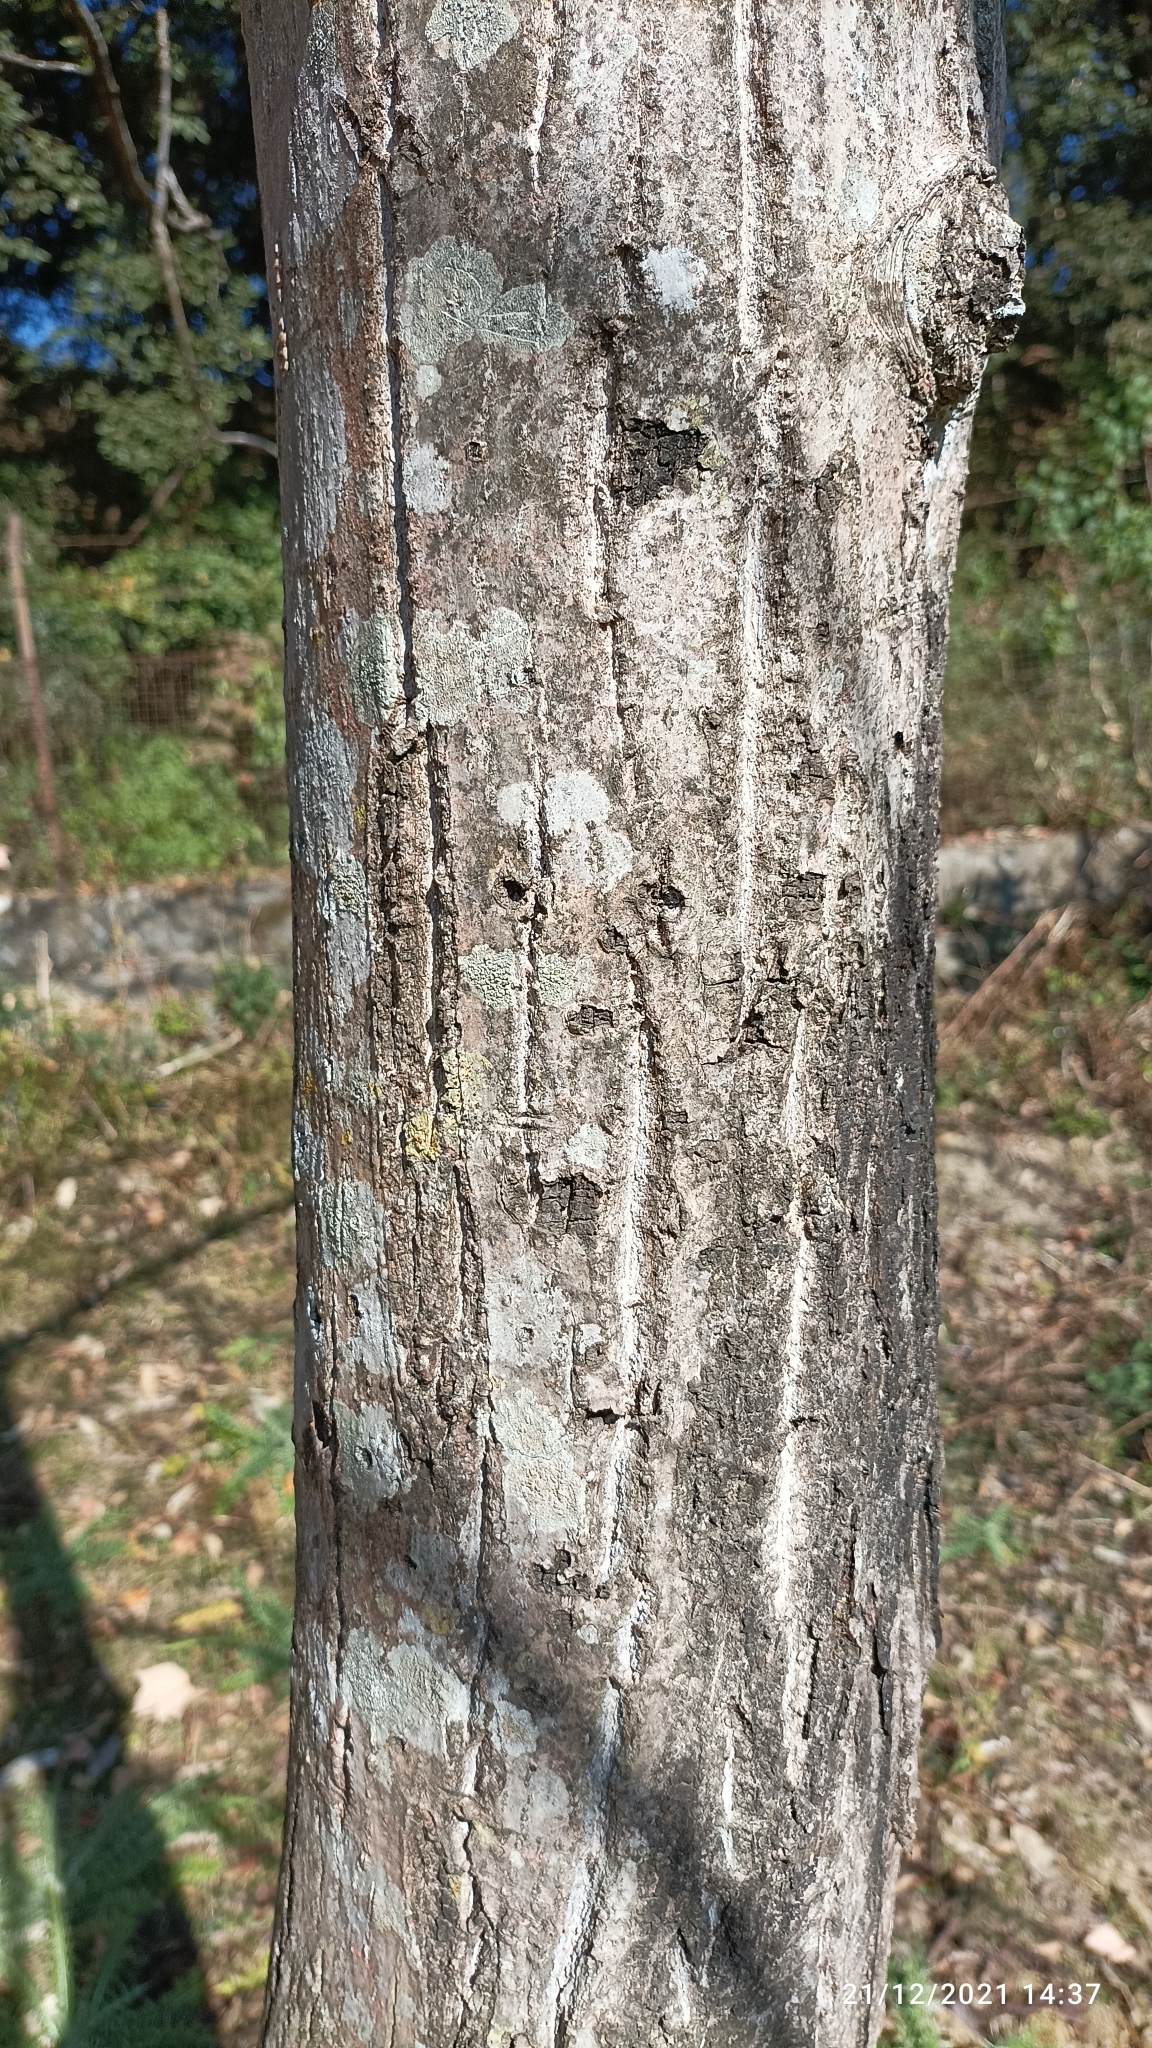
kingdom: Plantae
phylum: Tracheophyta
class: Magnoliopsida
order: Fagales
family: Juglandaceae
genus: Juglans
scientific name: Juglans regia
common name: Walnut
